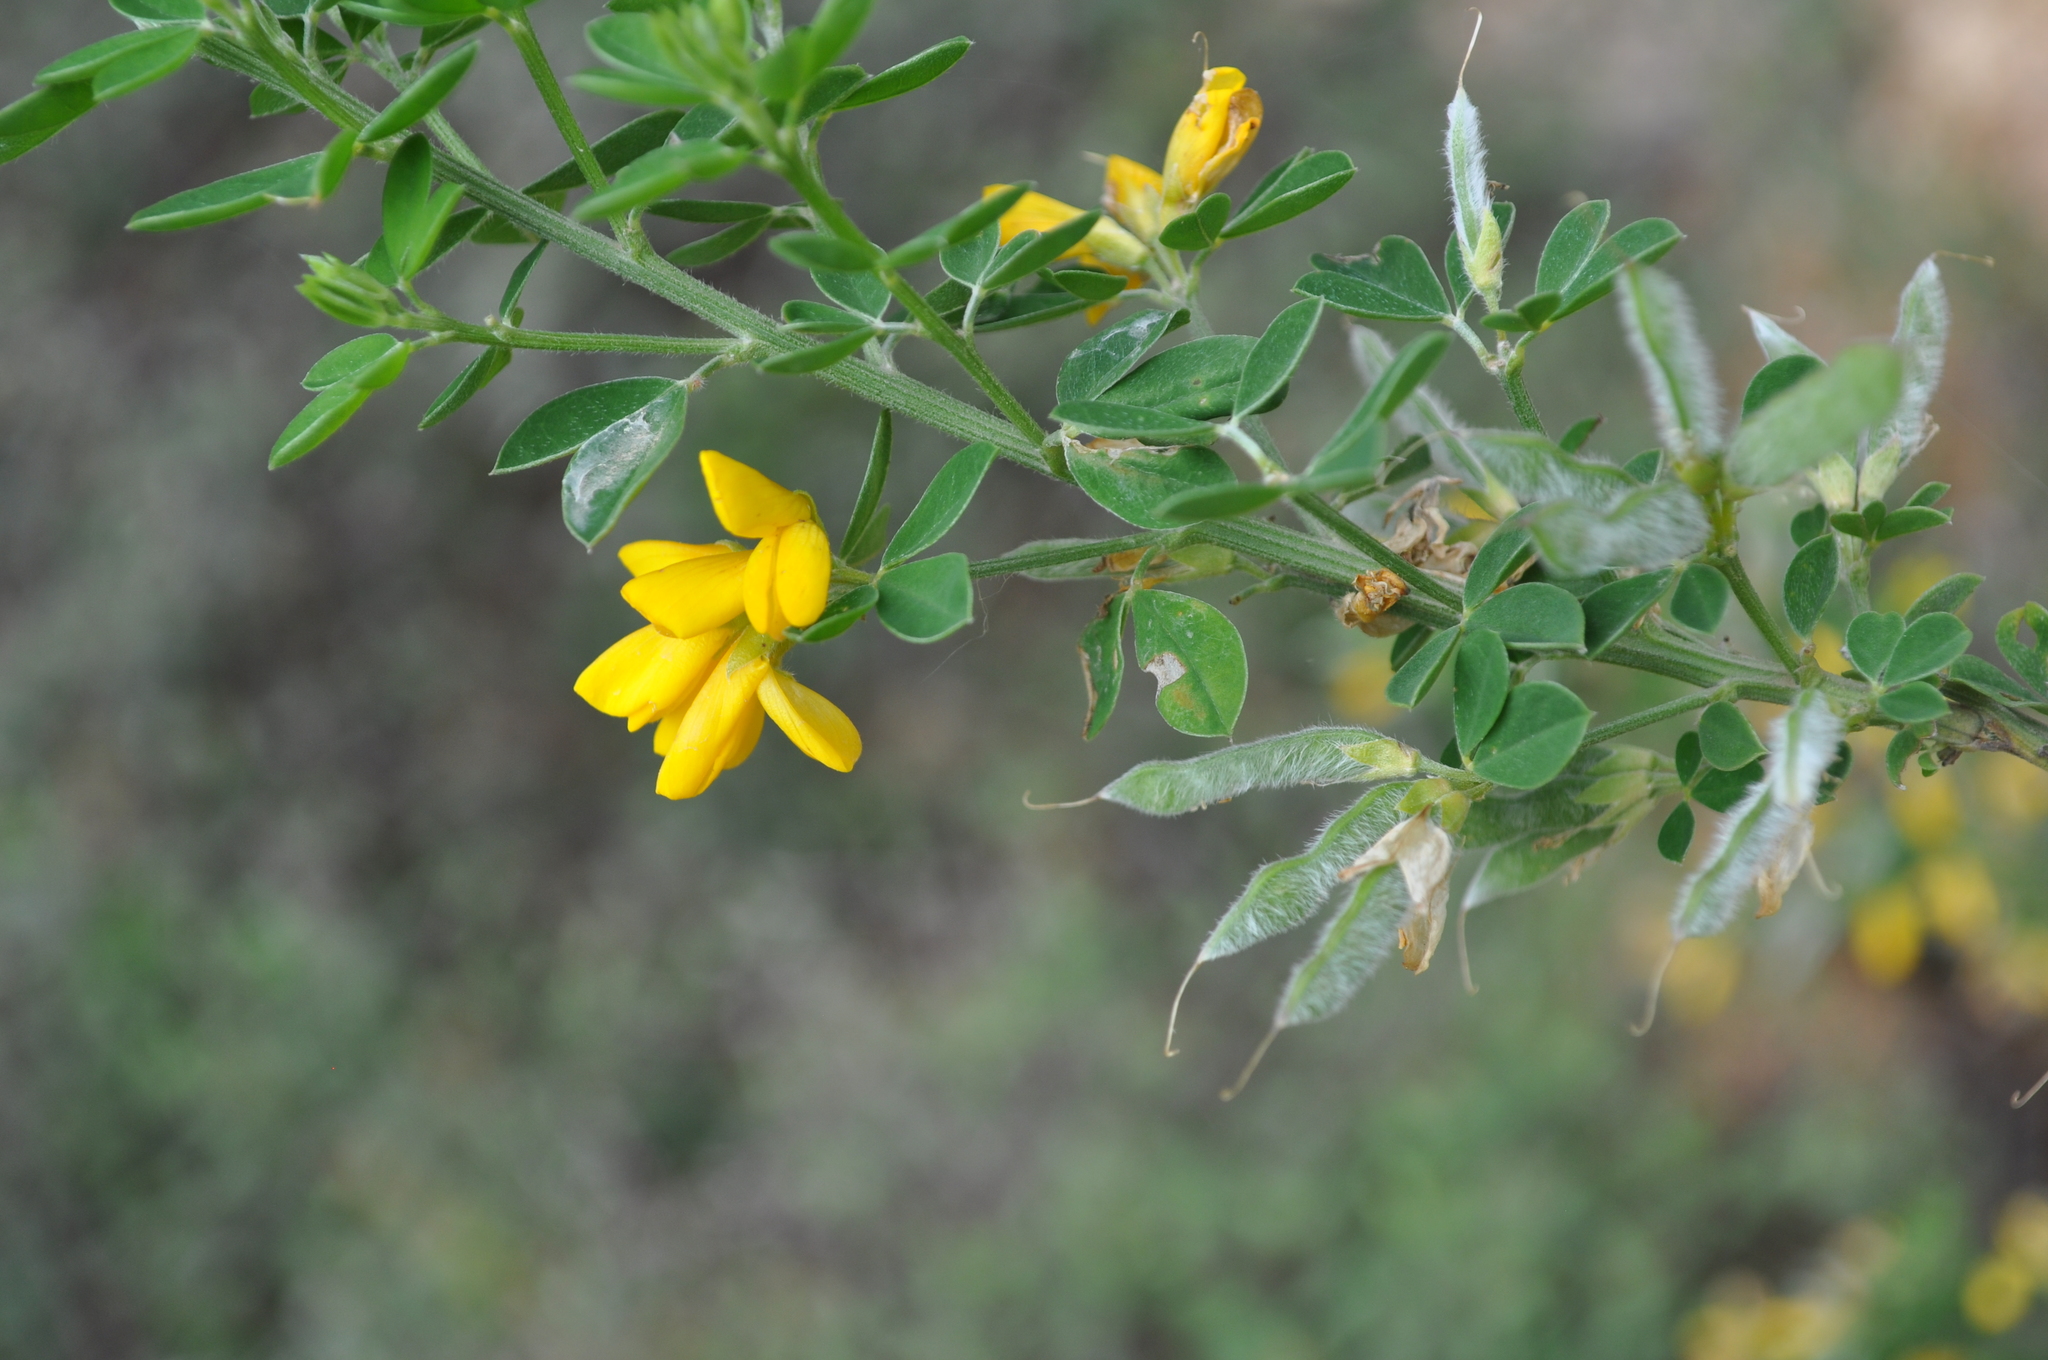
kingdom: Plantae
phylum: Tracheophyta
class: Magnoliopsida
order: Fabales
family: Fabaceae
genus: Genista
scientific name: Genista monspessulana
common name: Montpellier broom
